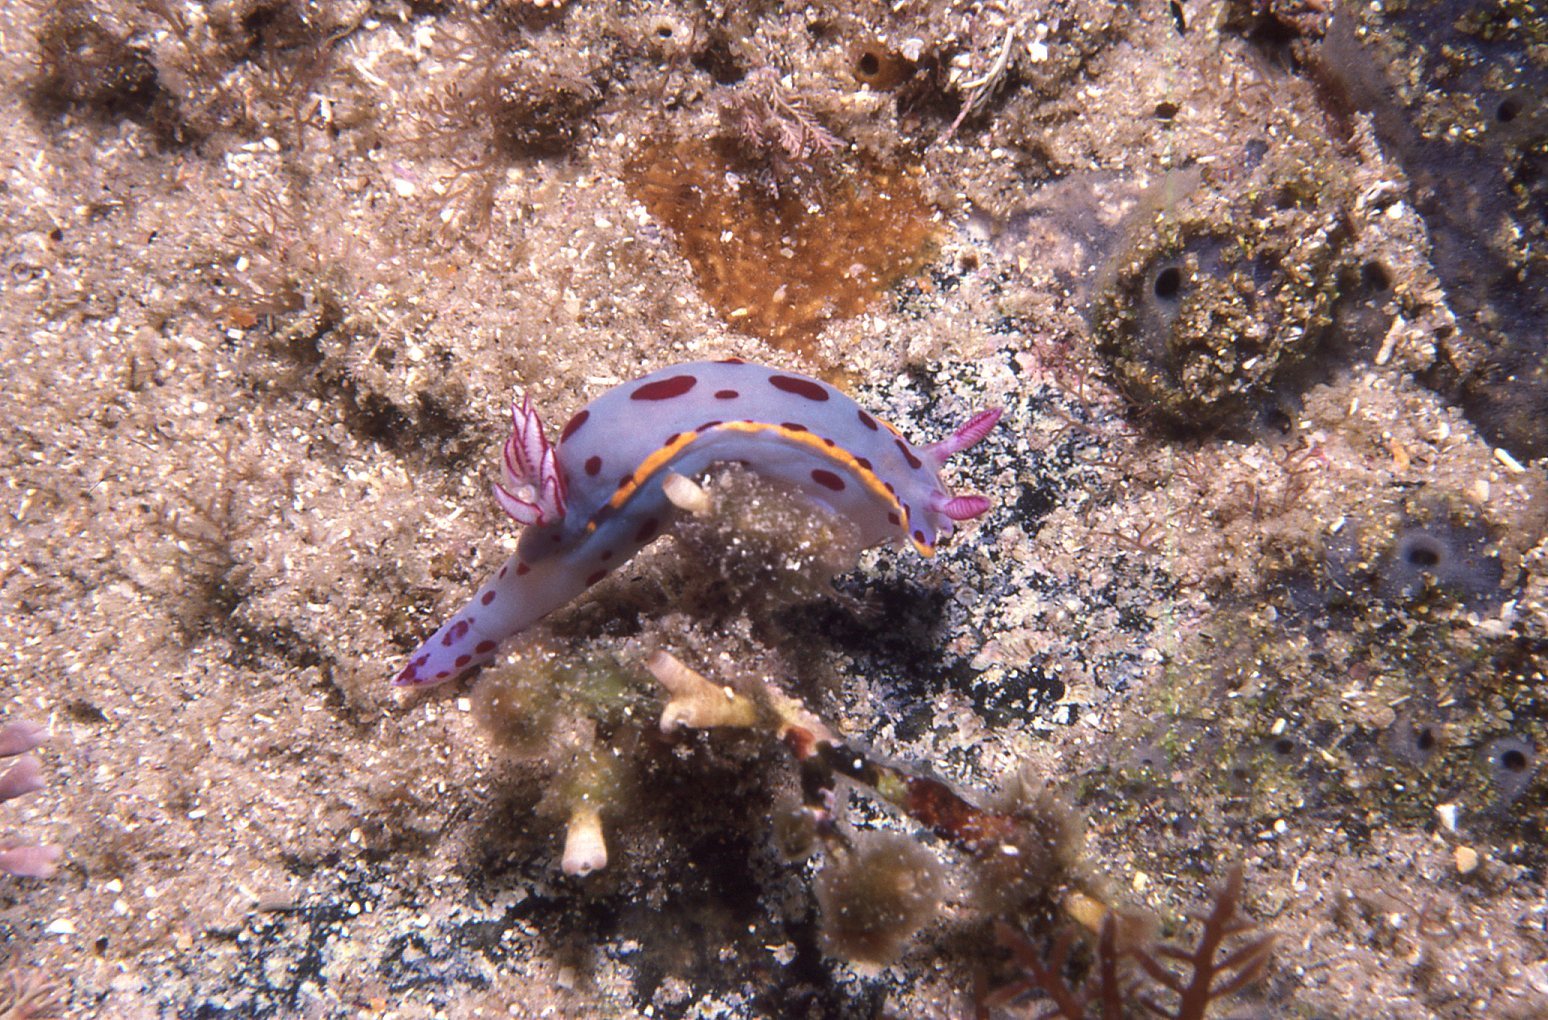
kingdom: Animalia
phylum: Mollusca
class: Gastropoda
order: Nudibranchia
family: Chromodorididae
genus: Hypselodoris
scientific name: Hypselodoris bennetti
